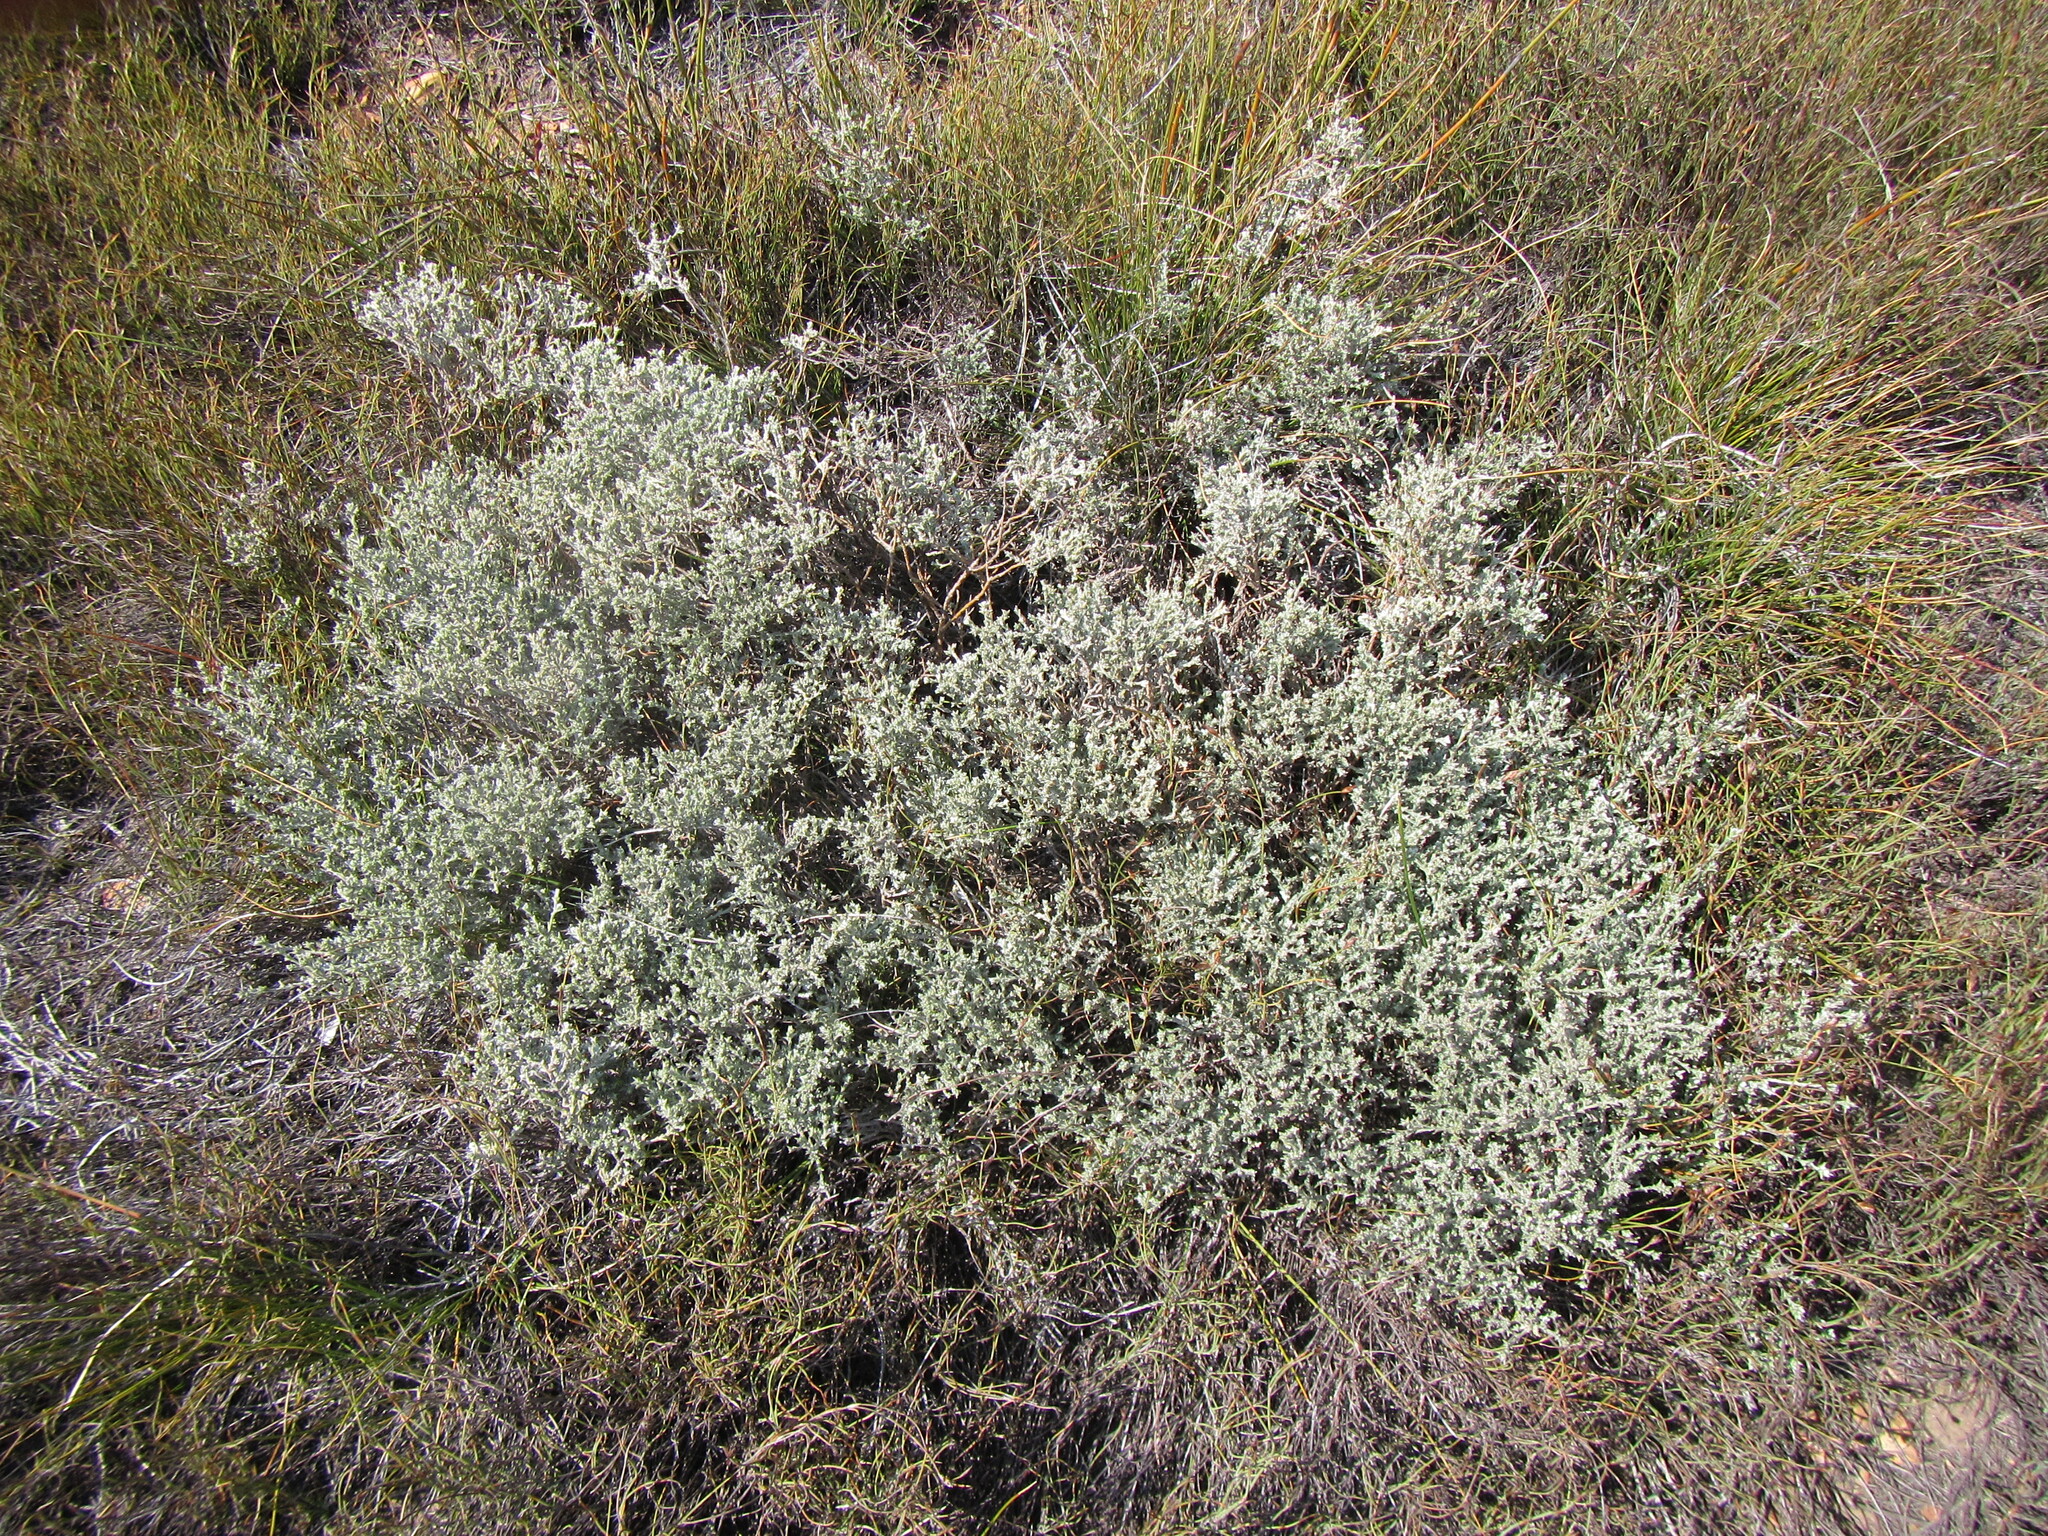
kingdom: Plantae
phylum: Tracheophyta
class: Magnoliopsida
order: Fabales
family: Fabaceae
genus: Amphithalea
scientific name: Amphithalea monticola
